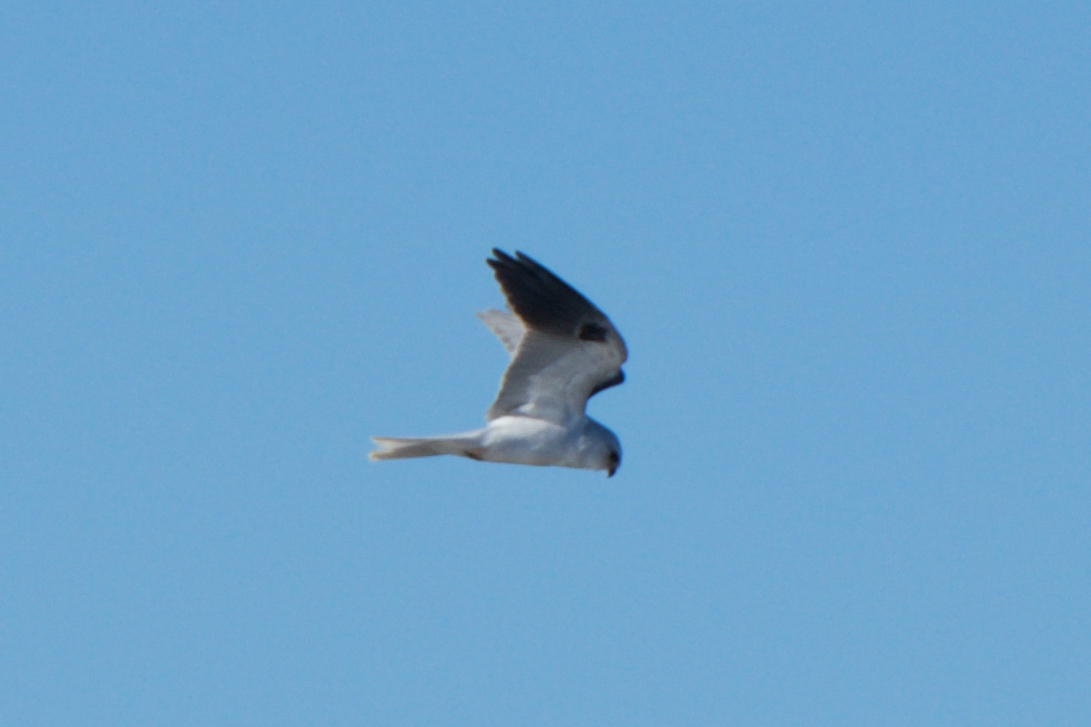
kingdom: Animalia
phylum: Chordata
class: Aves
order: Accipitriformes
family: Accipitridae
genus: Elanus
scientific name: Elanus leucurus
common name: White-tailed kite
